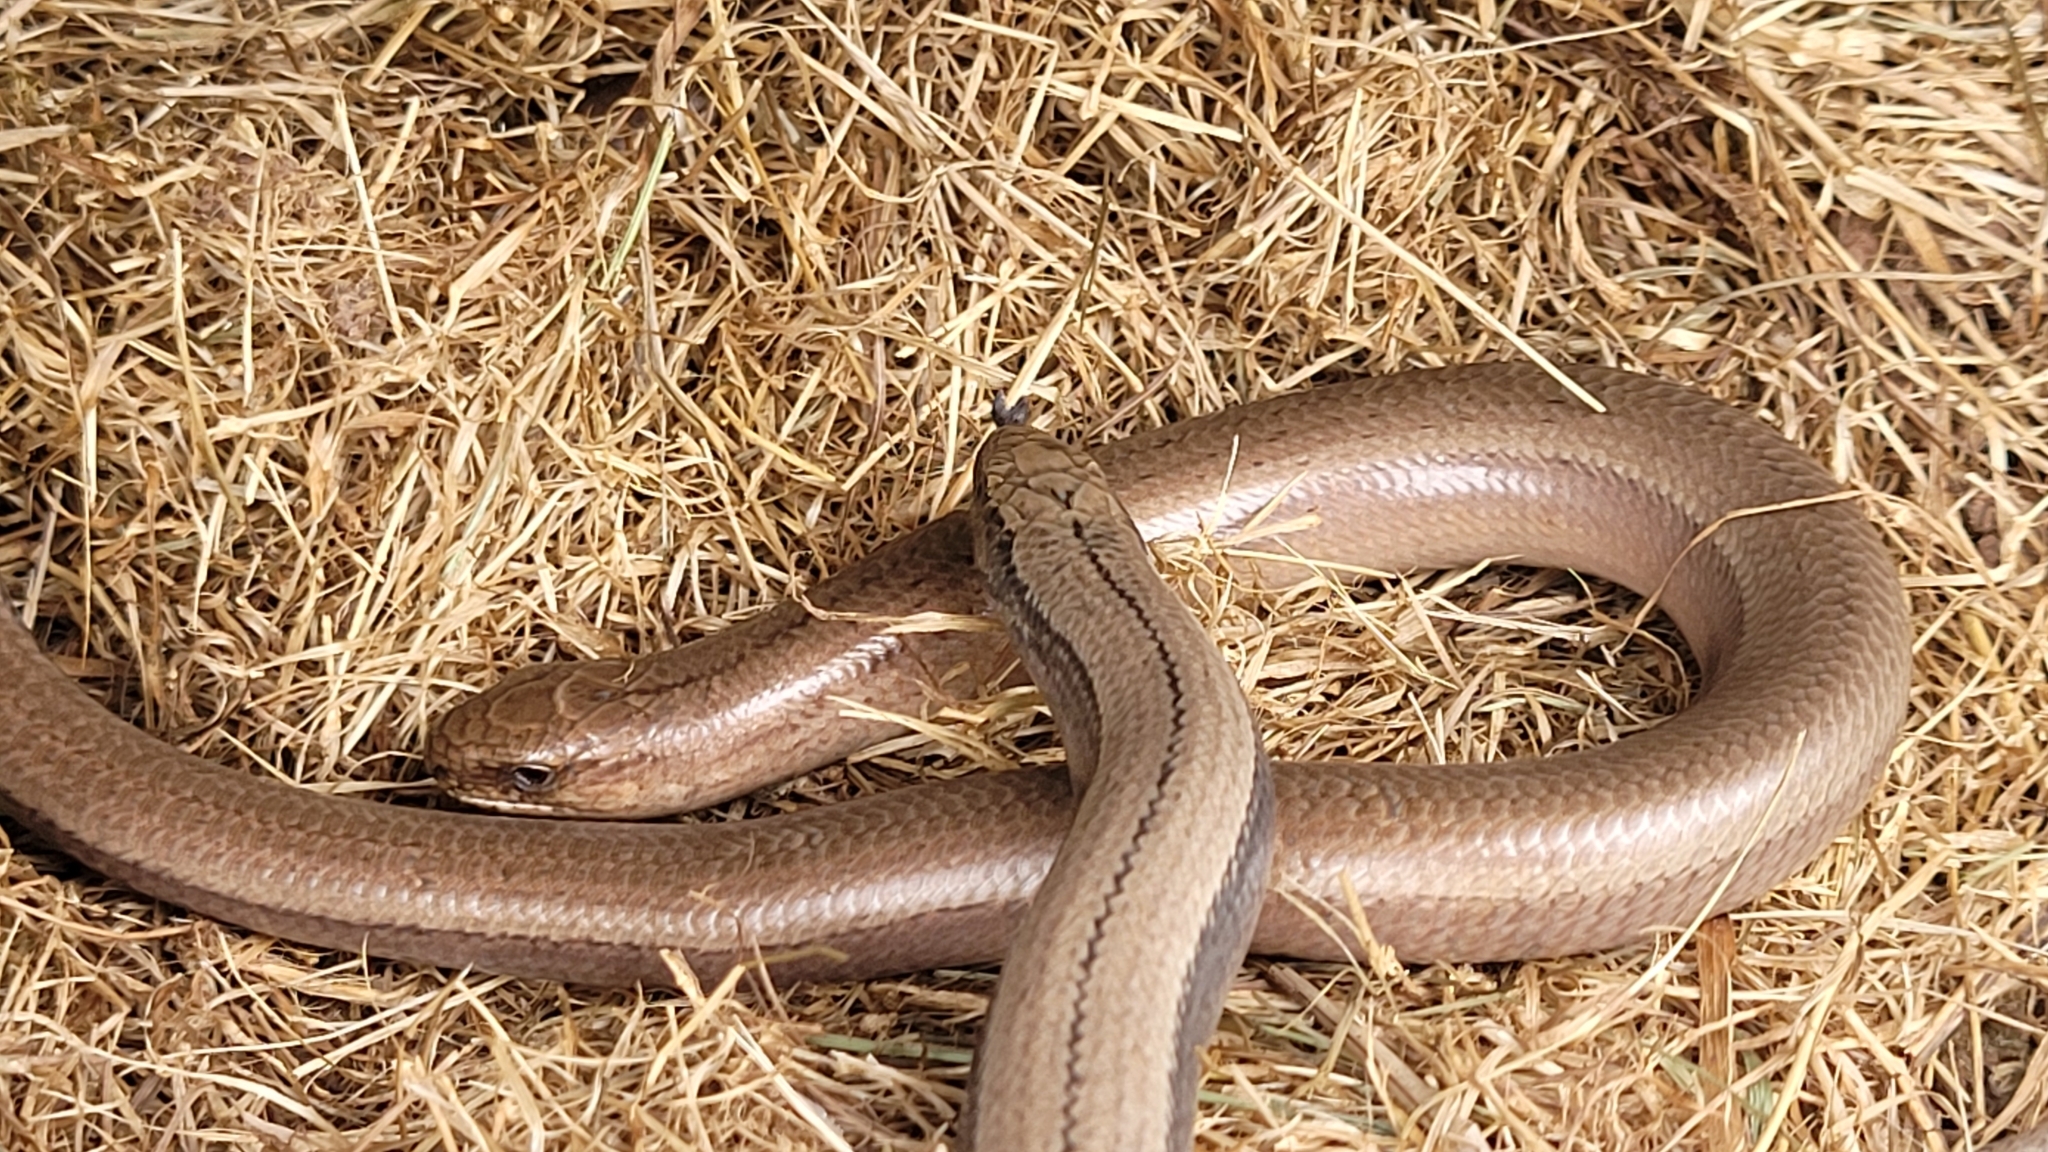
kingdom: Animalia
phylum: Chordata
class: Squamata
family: Anguidae
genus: Anguis
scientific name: Anguis fragilis
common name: Slow worm
